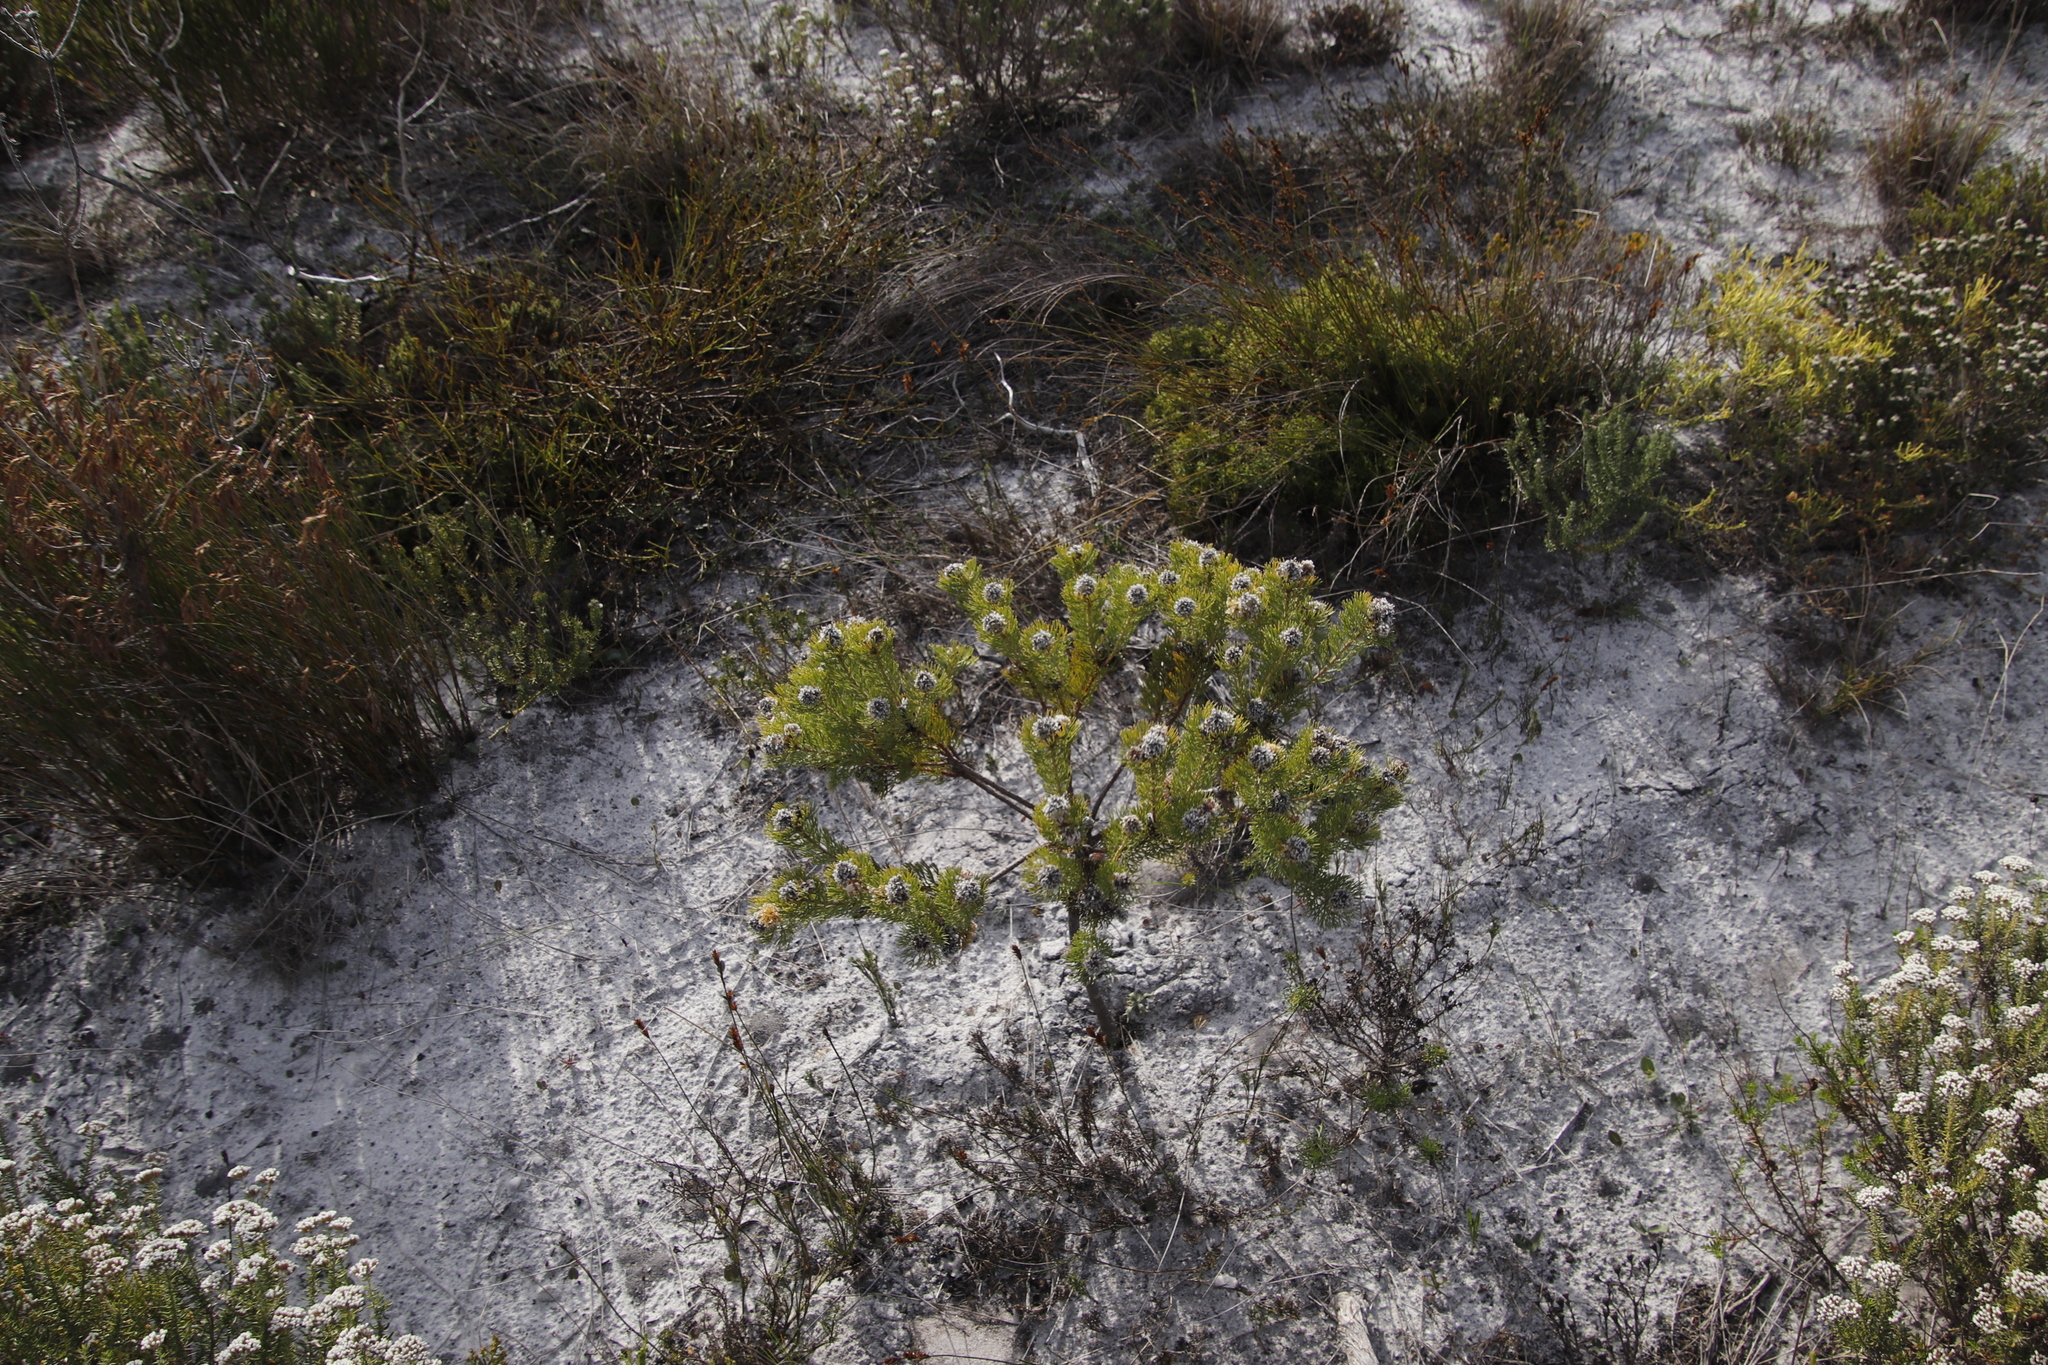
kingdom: Plantae
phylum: Tracheophyta
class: Magnoliopsida
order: Proteales
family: Proteaceae
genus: Serruria
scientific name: Serruria villosa
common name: Golden spiderhead
